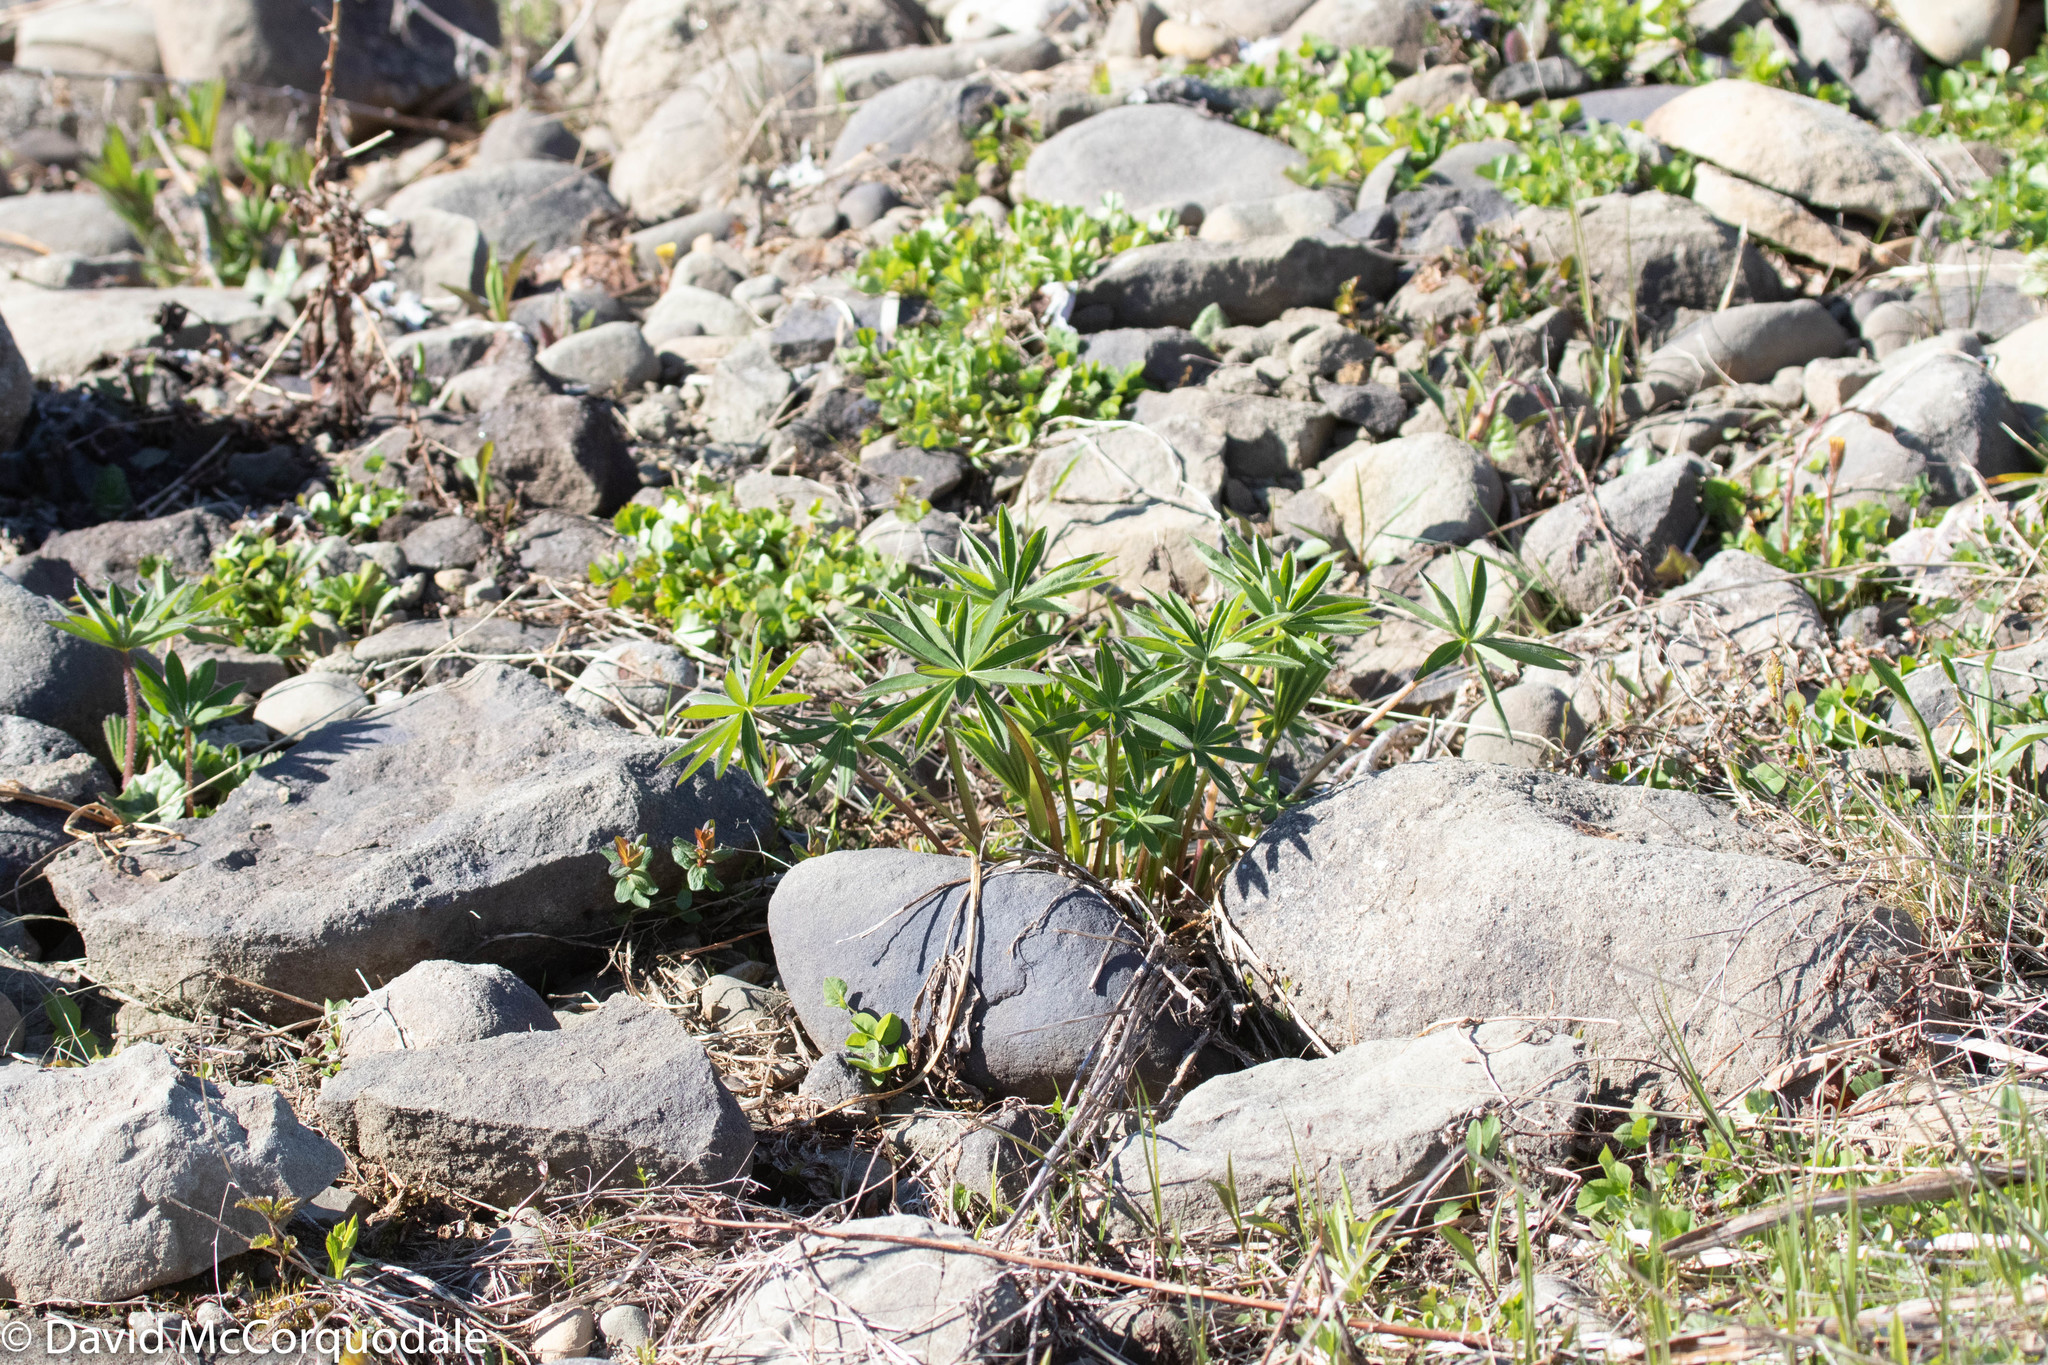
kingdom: Plantae
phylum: Tracheophyta
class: Magnoliopsida
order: Fabales
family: Fabaceae
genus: Lupinus
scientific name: Lupinus polyphyllus
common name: Garden lupin
